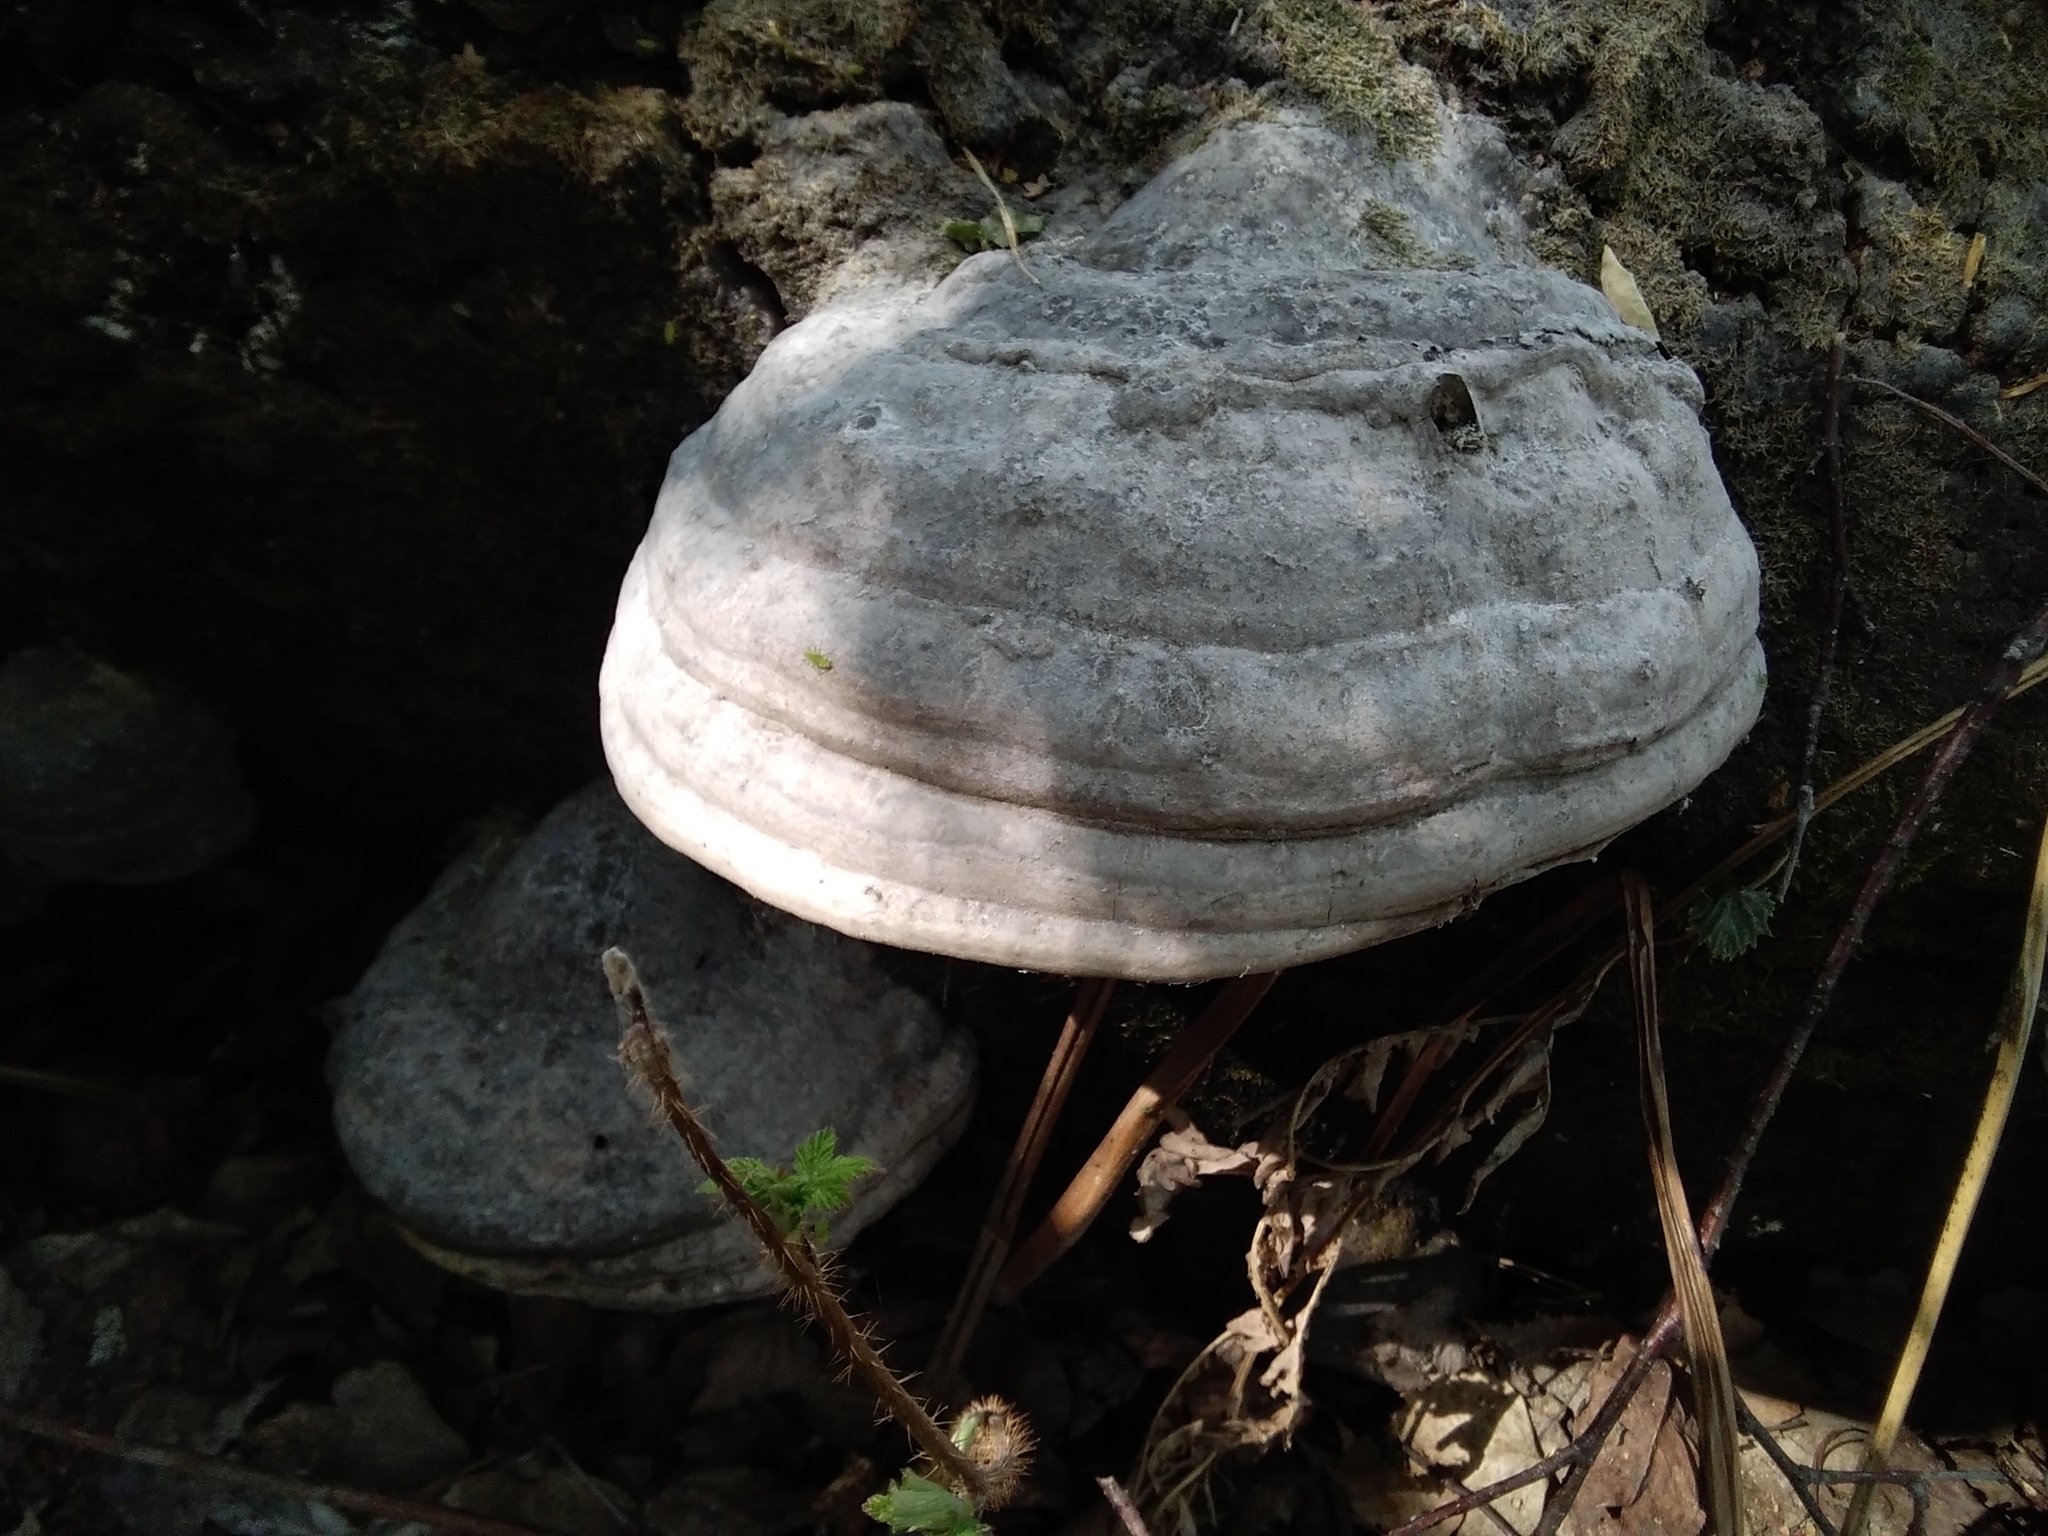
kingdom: Fungi
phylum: Basidiomycota
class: Agaricomycetes
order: Polyporales
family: Polyporaceae
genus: Fomes
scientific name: Fomes fomentarius
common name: Hoof fungus
